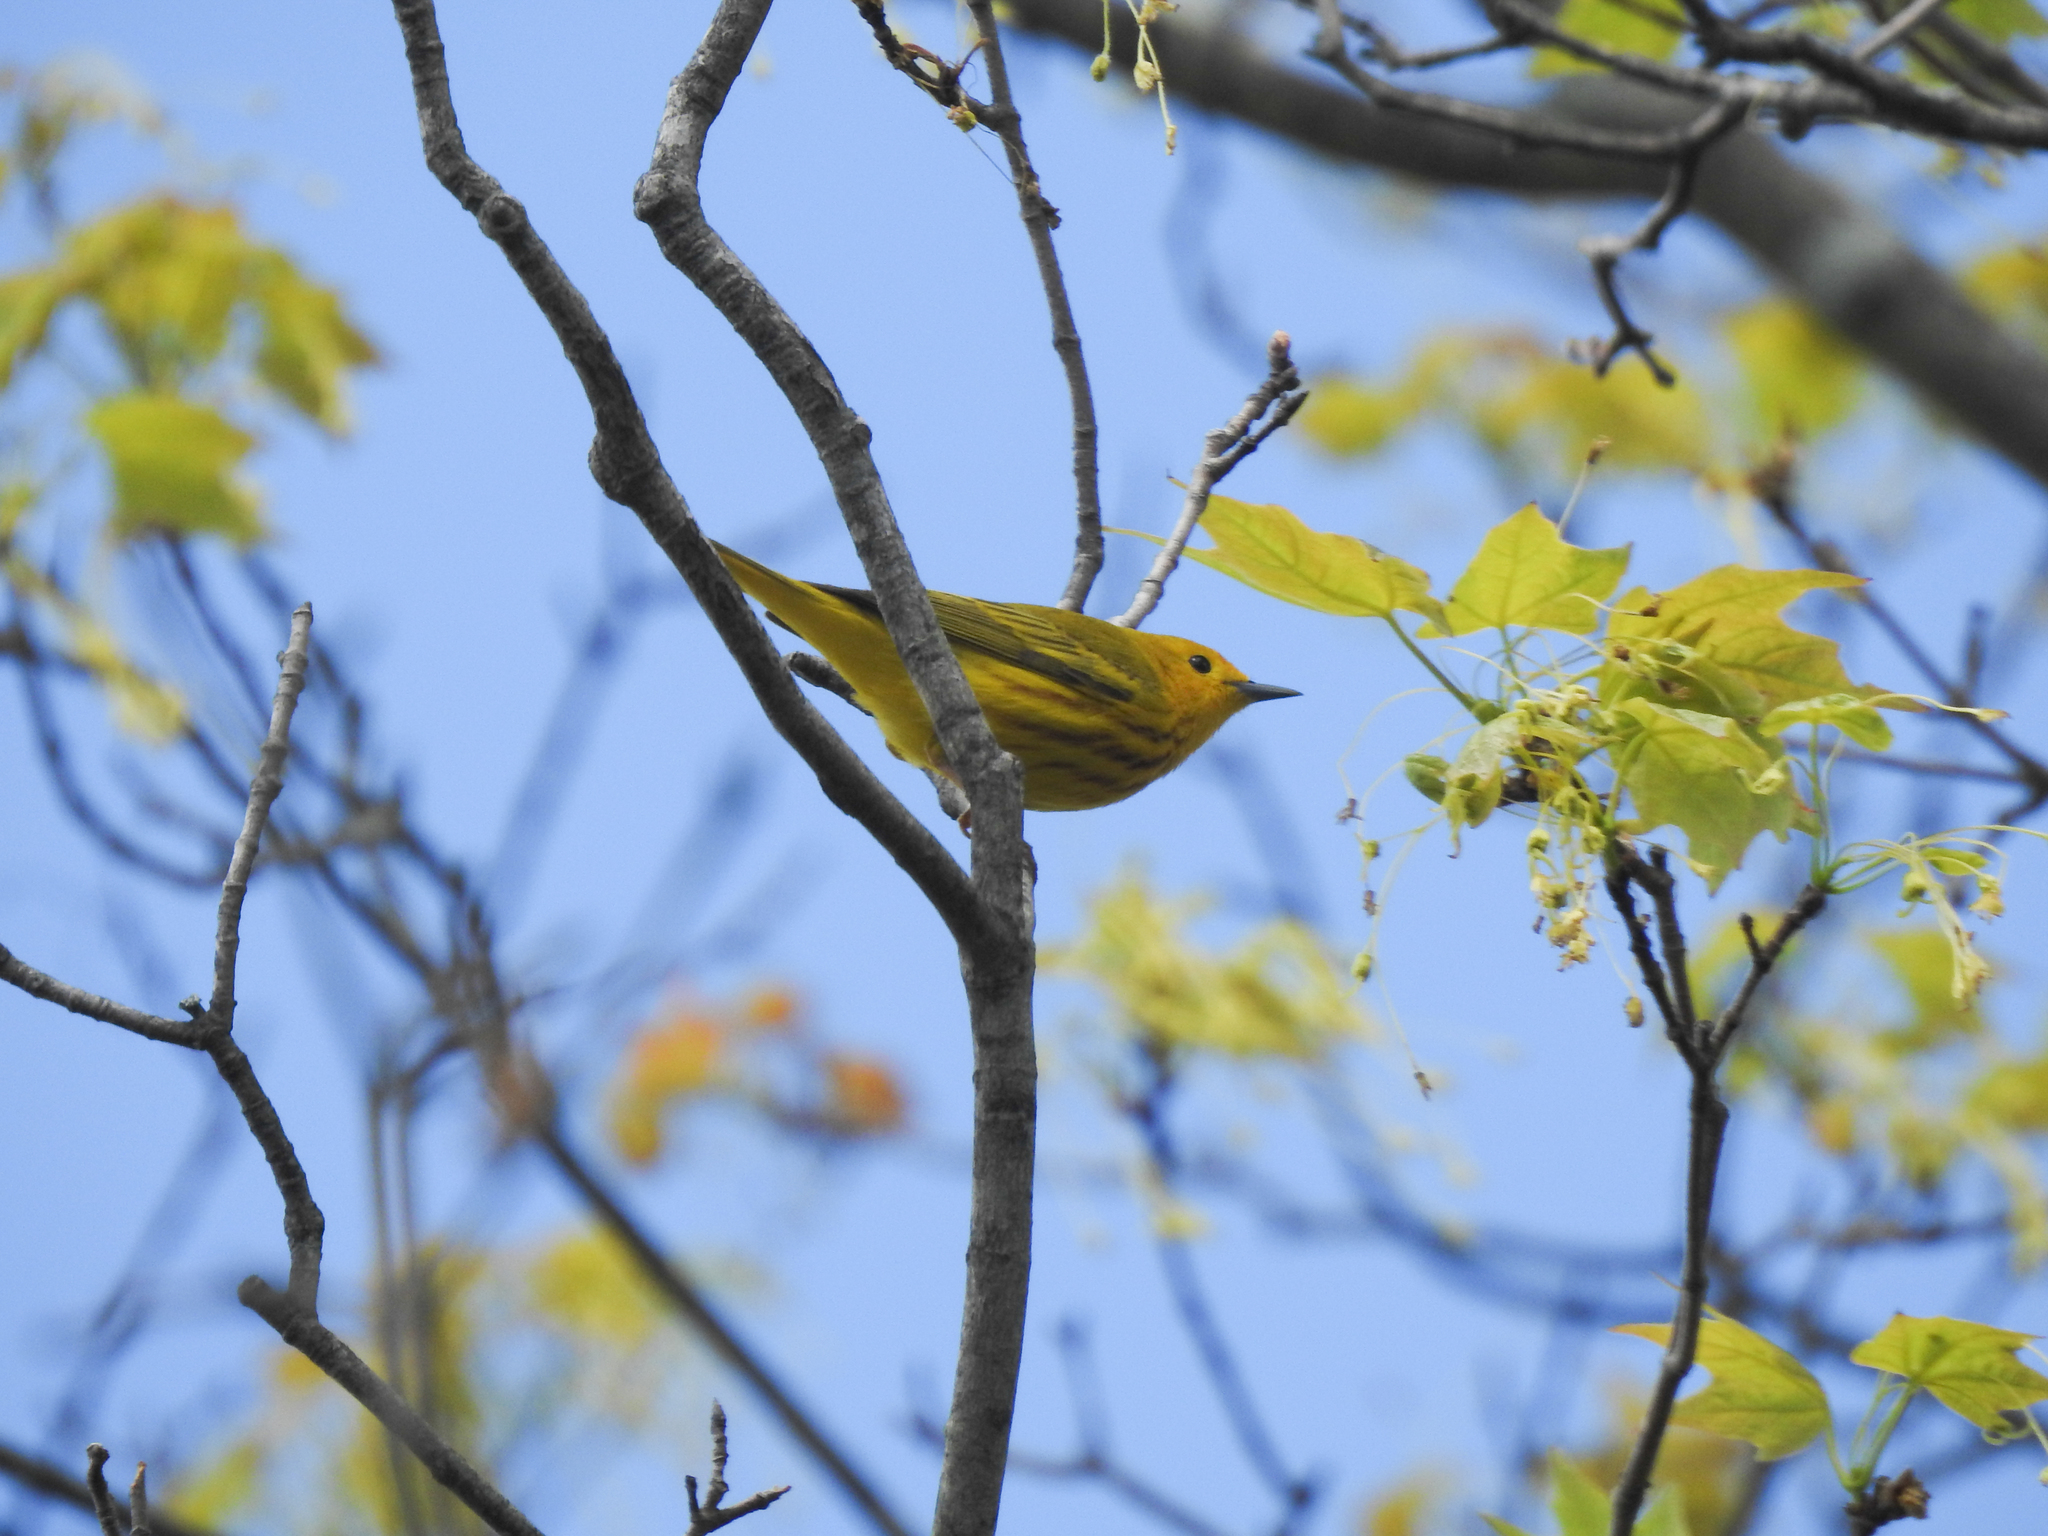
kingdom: Animalia
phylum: Chordata
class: Aves
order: Passeriformes
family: Parulidae
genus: Setophaga
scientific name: Setophaga petechia
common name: Yellow warbler
